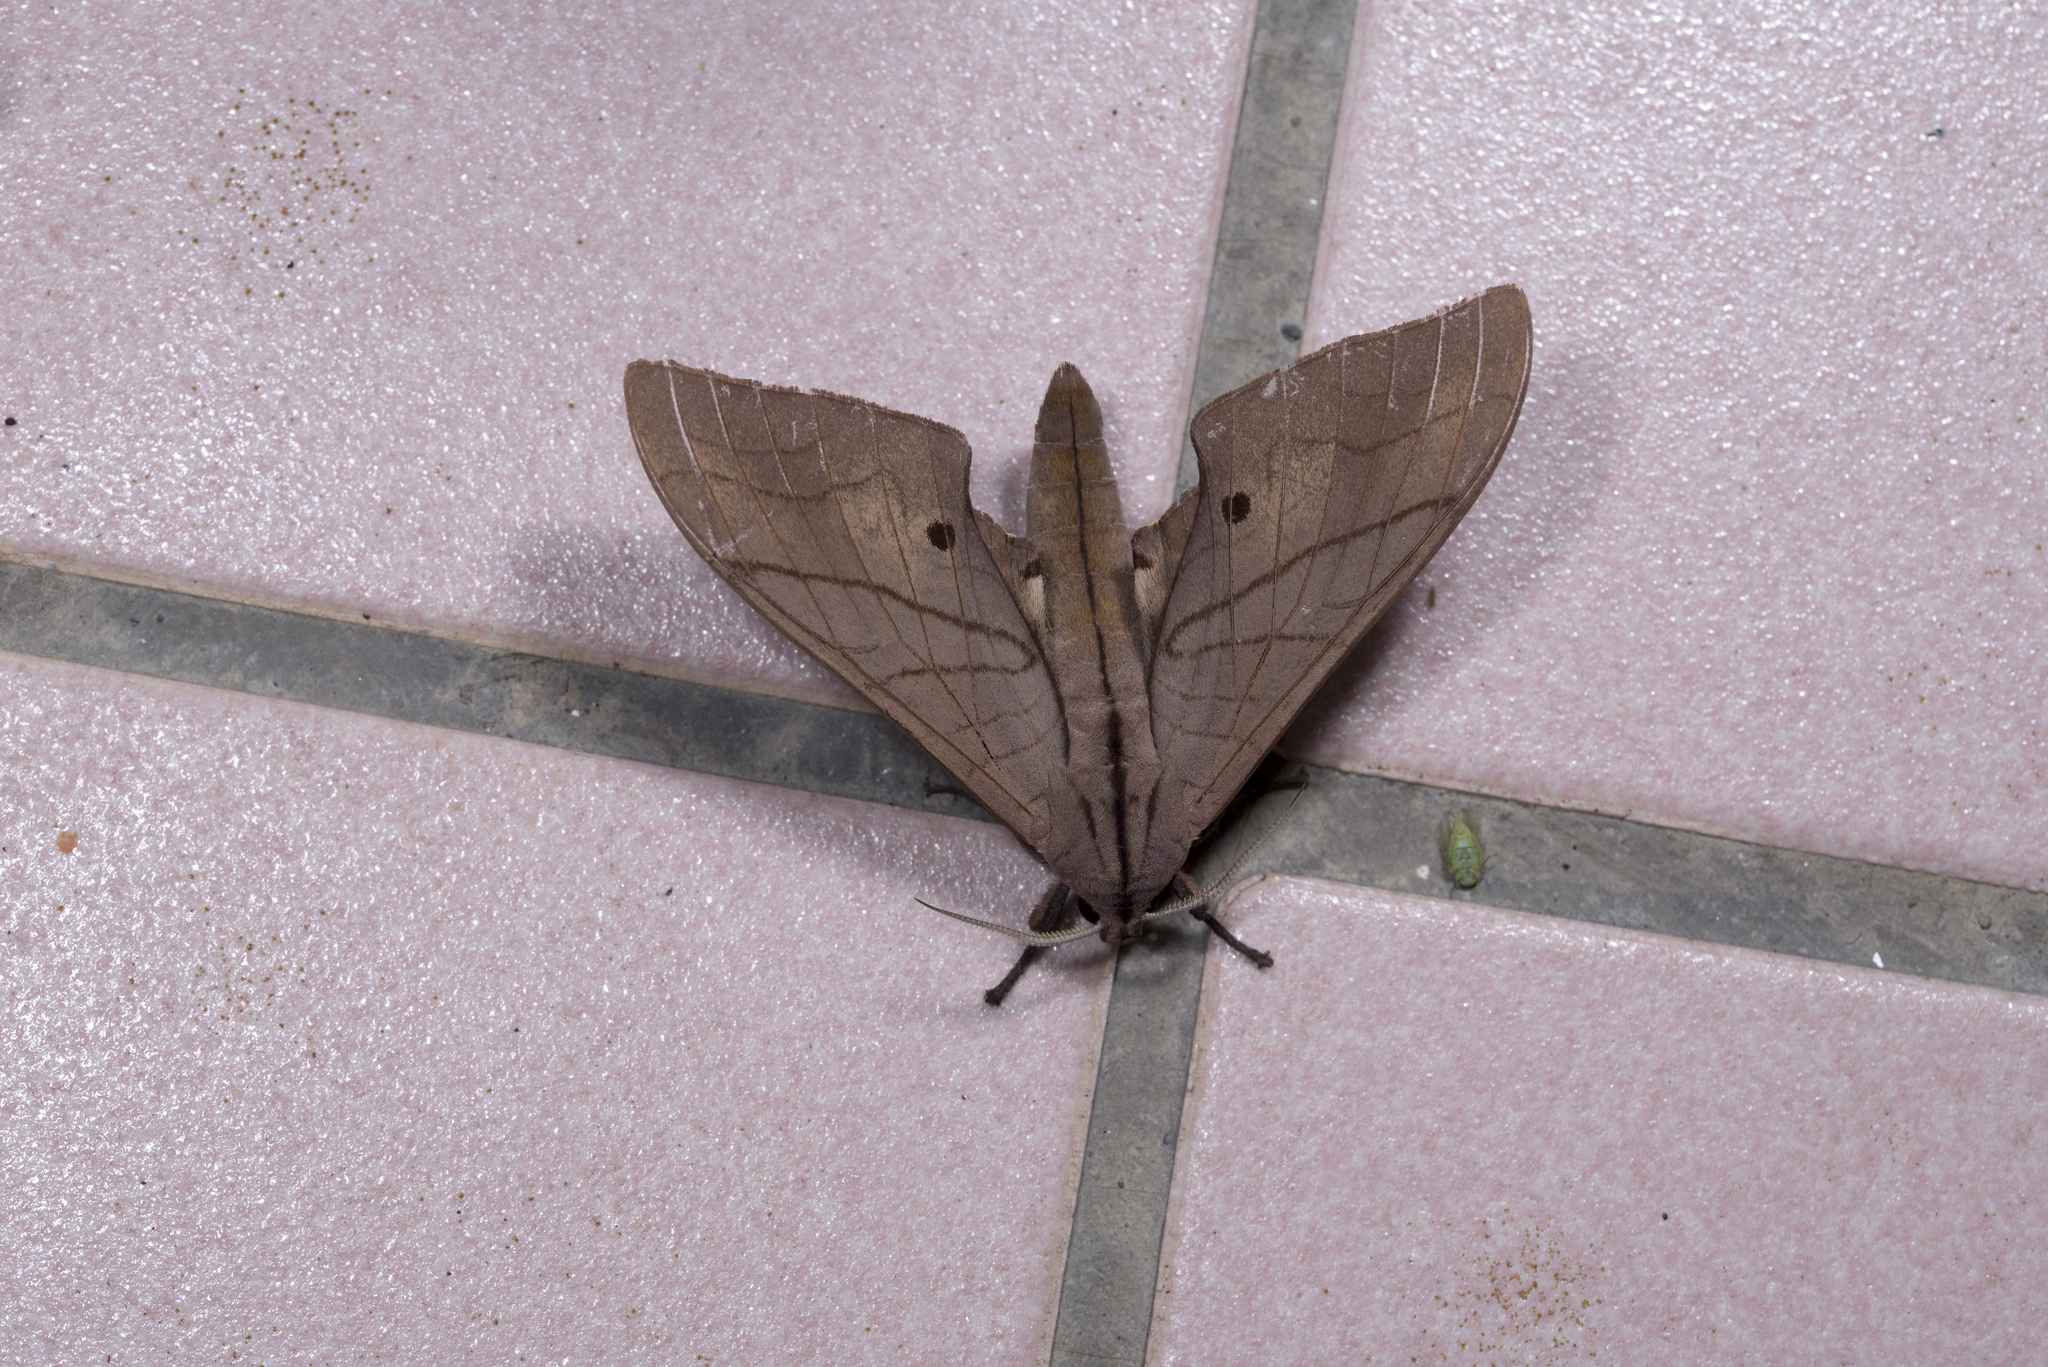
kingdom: Animalia
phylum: Arthropoda
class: Insecta
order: Lepidoptera
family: Sphingidae
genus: Marumba
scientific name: Marumba cristata
